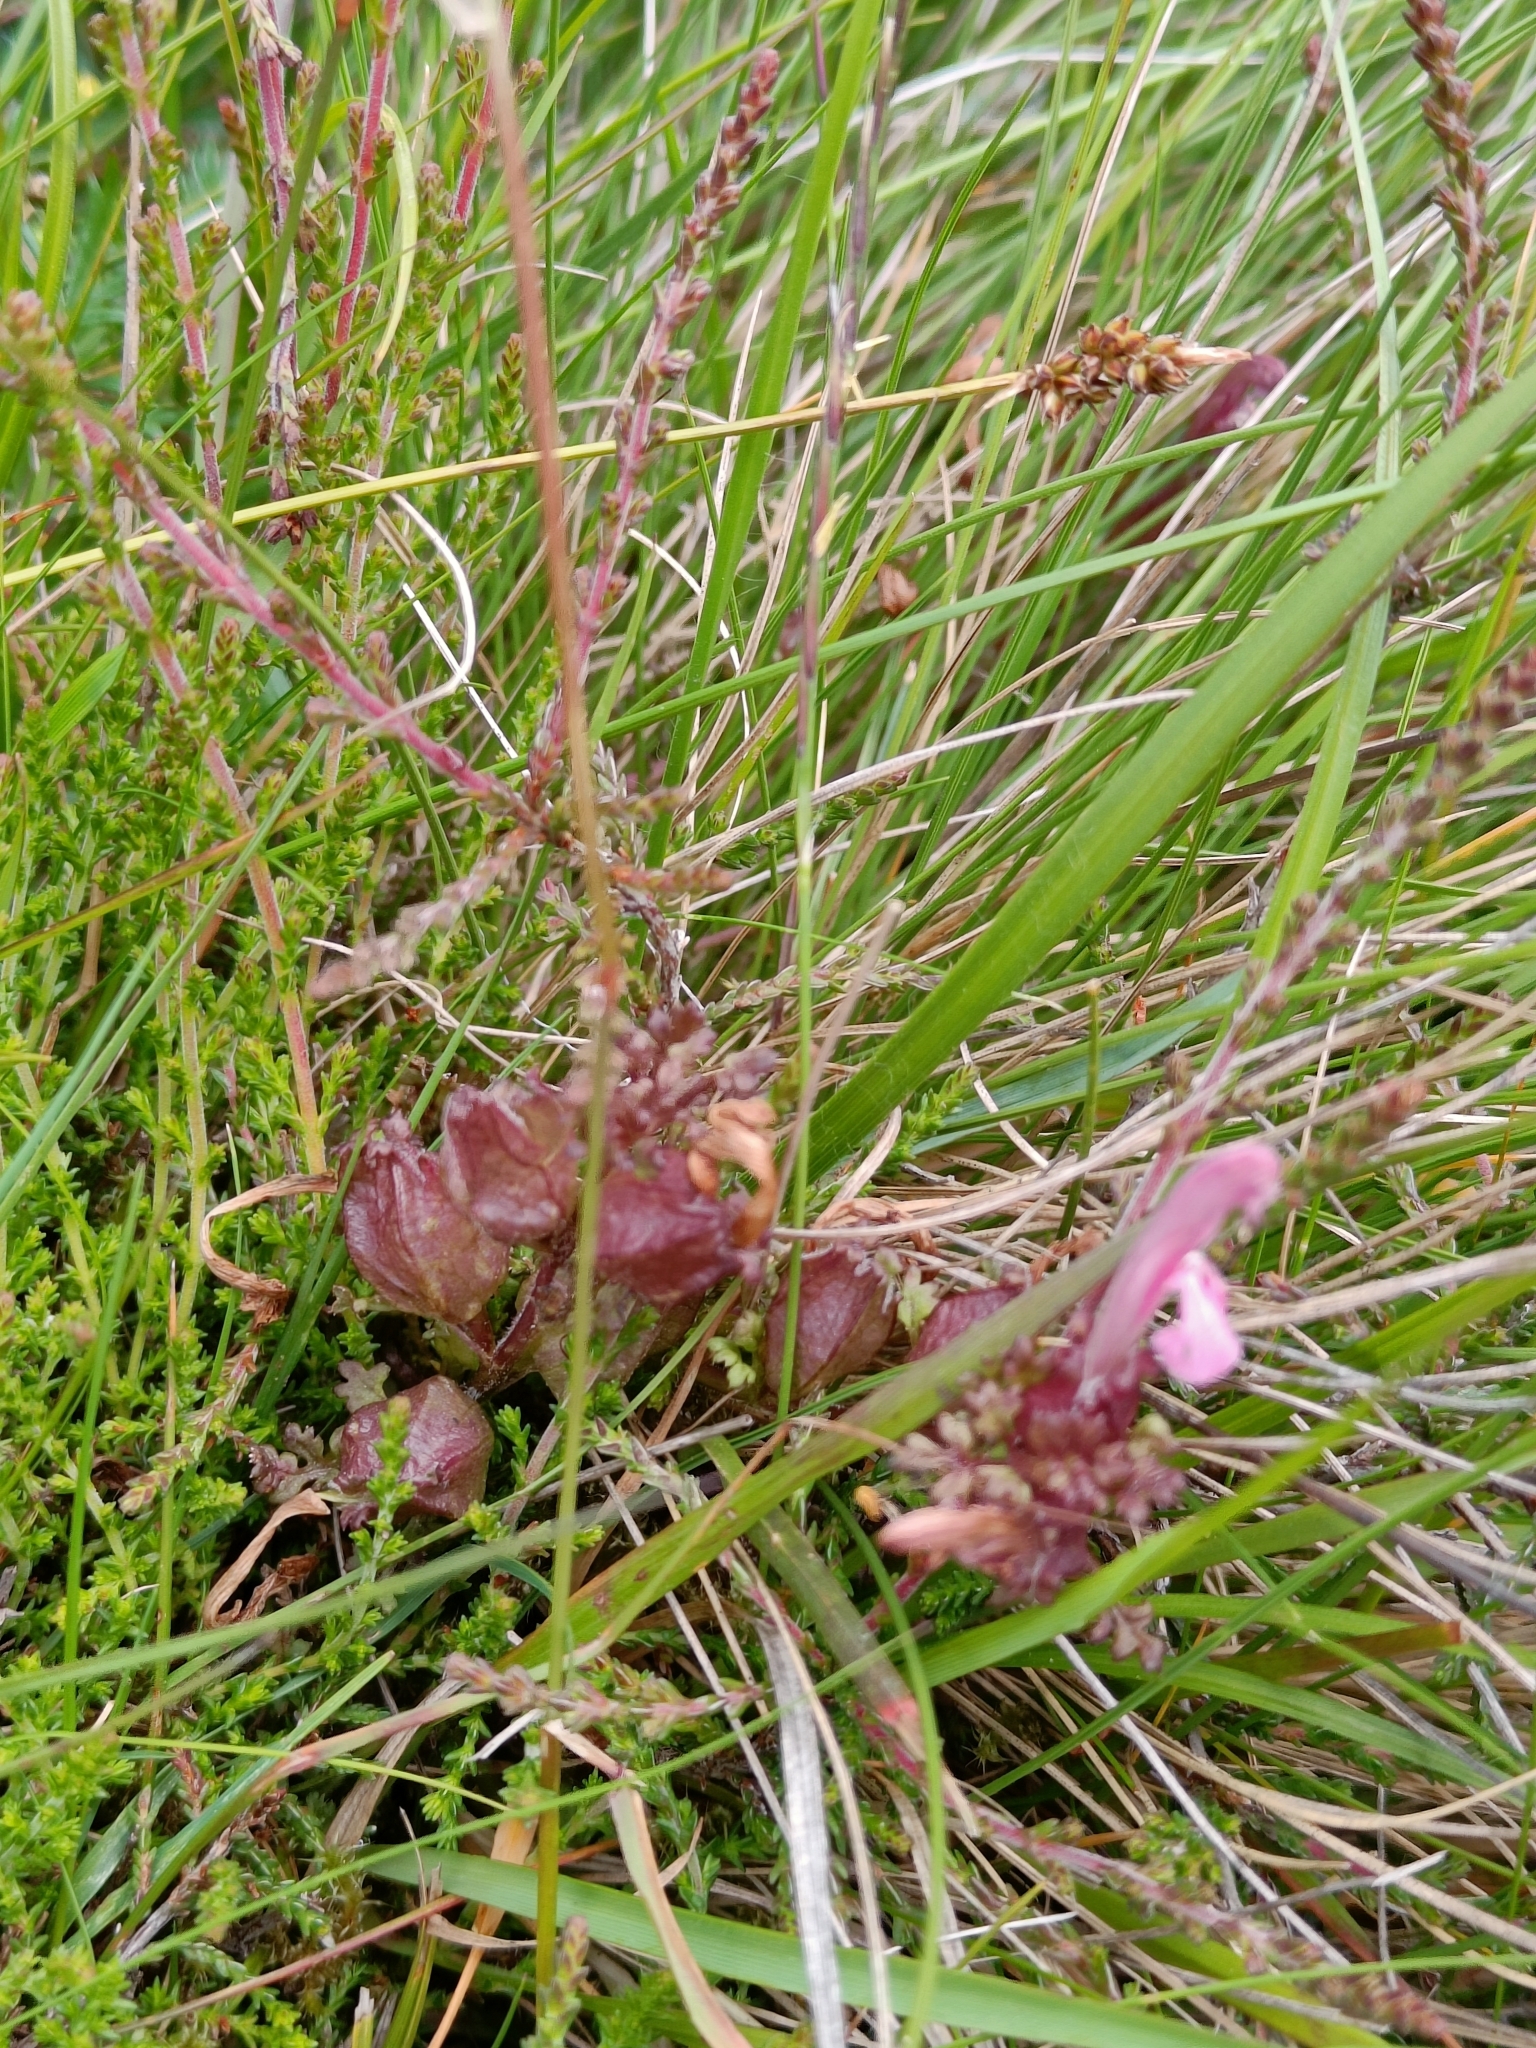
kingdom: Plantae
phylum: Tracheophyta
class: Magnoliopsida
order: Lamiales
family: Orobanchaceae
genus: Pedicularis
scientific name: Pedicularis sylvatica
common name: Lousewort
